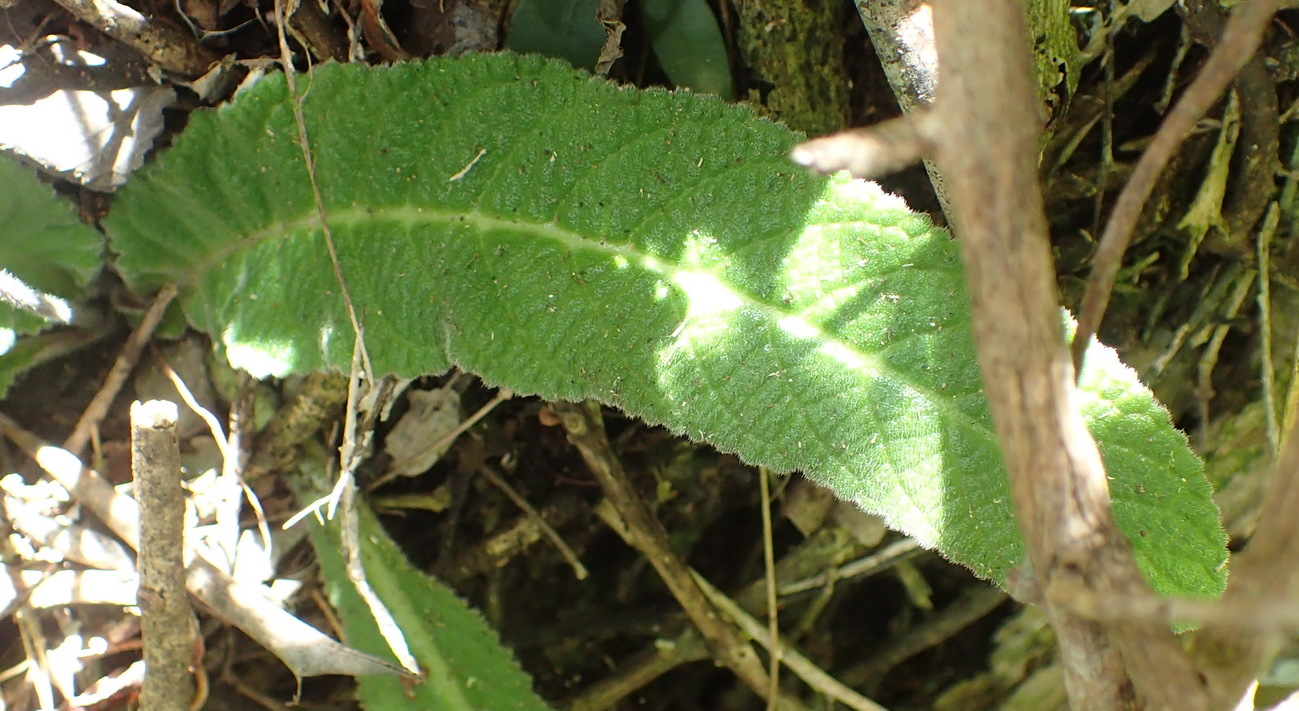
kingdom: Plantae
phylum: Tracheophyta
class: Magnoliopsida
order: Lamiales
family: Gesneriaceae
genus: Streptocarpus
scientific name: Streptocarpus rexii
